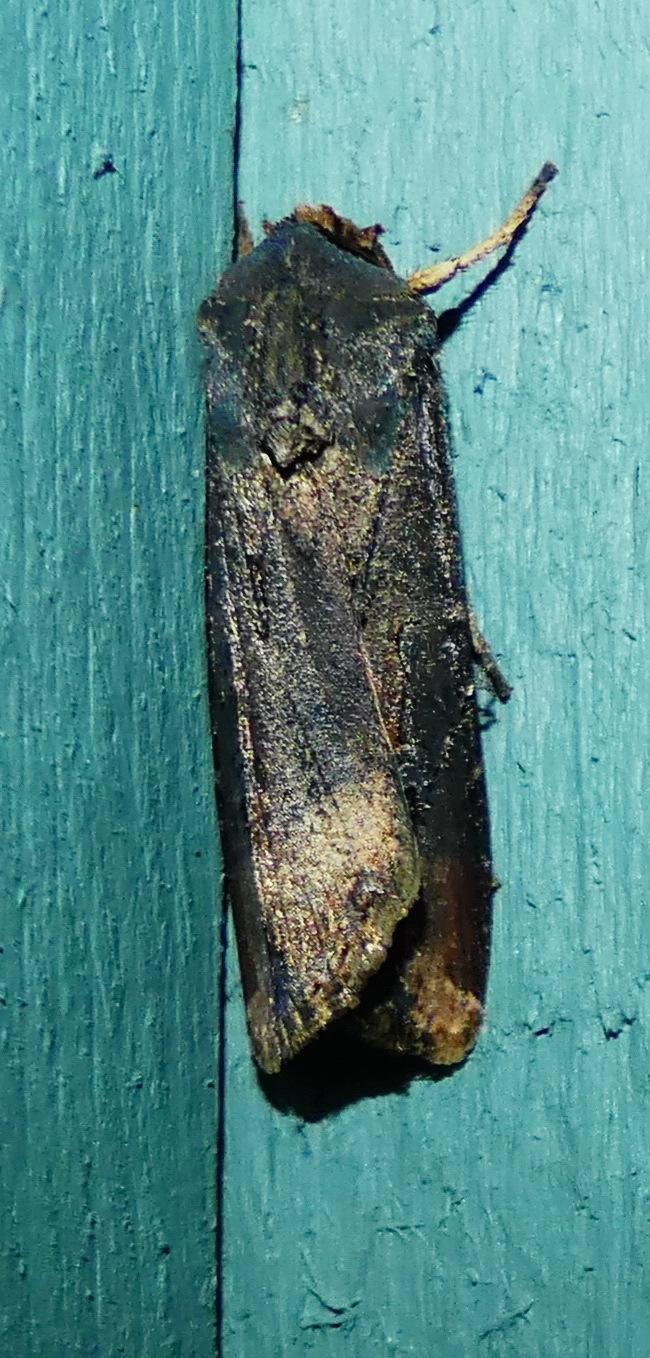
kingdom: Animalia
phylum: Arthropoda
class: Insecta
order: Lepidoptera
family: Noctuidae
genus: Agrotis
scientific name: Agrotis ipsilon
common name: Dark sword-grass
